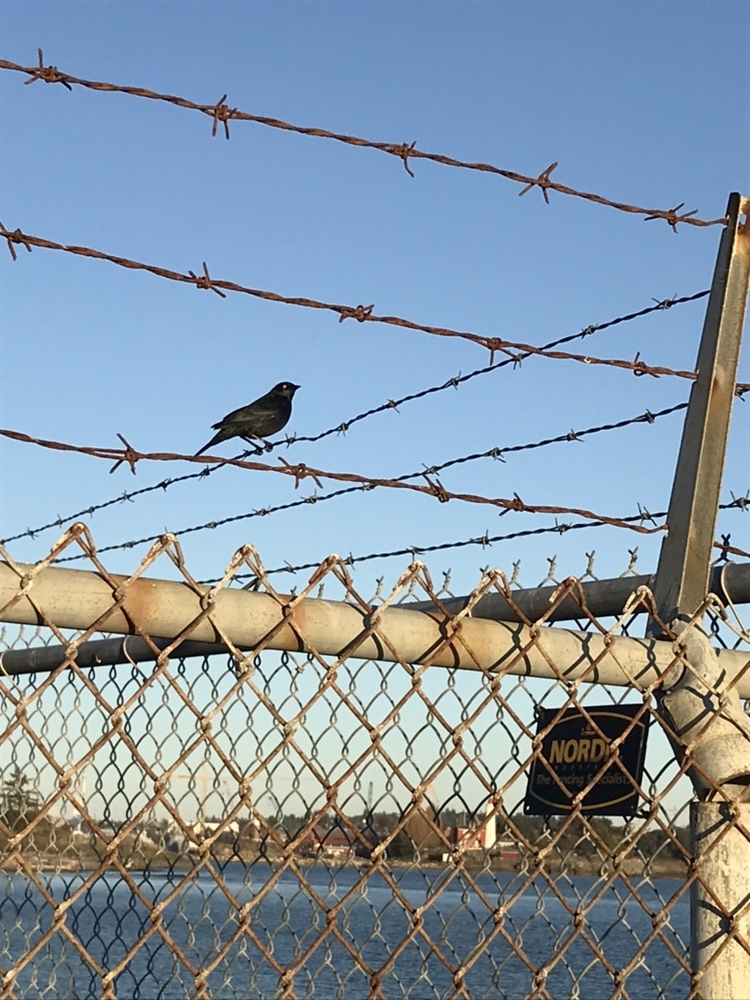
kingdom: Animalia
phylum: Chordata
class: Aves
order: Passeriformes
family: Icteridae
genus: Euphagus
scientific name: Euphagus cyanocephalus
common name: Brewer's blackbird
